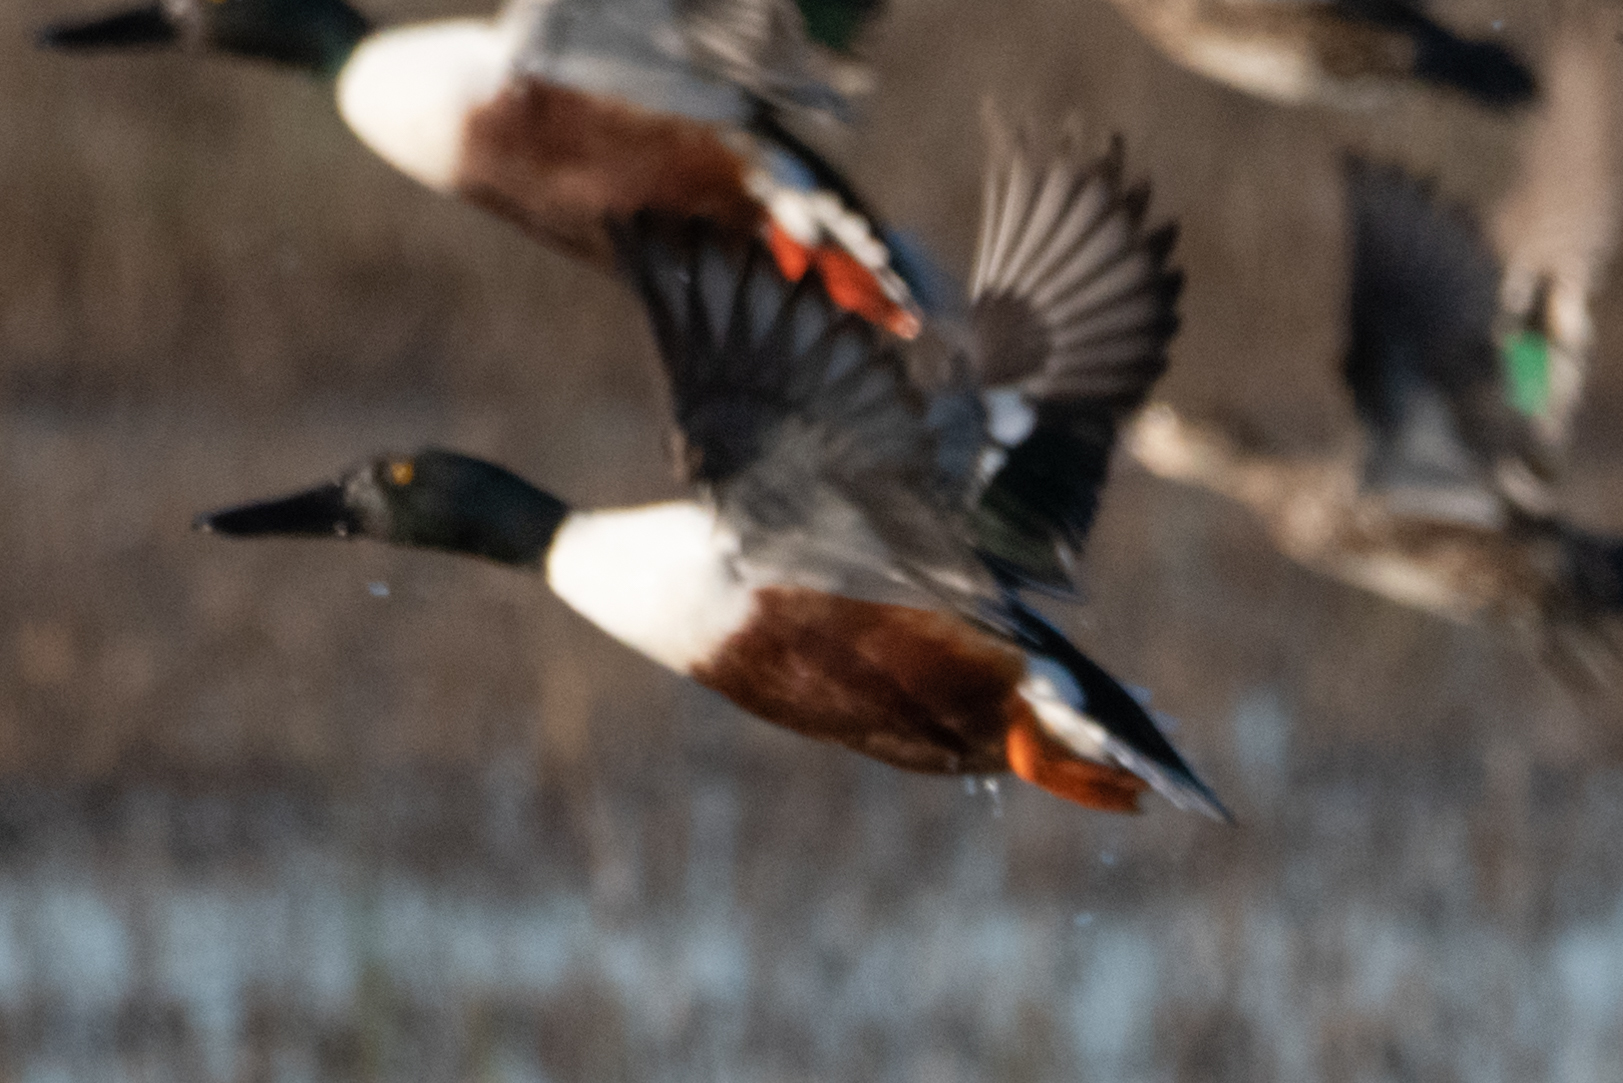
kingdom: Animalia
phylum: Chordata
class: Aves
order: Anseriformes
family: Anatidae
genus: Spatula
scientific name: Spatula clypeata
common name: Northern shoveler
